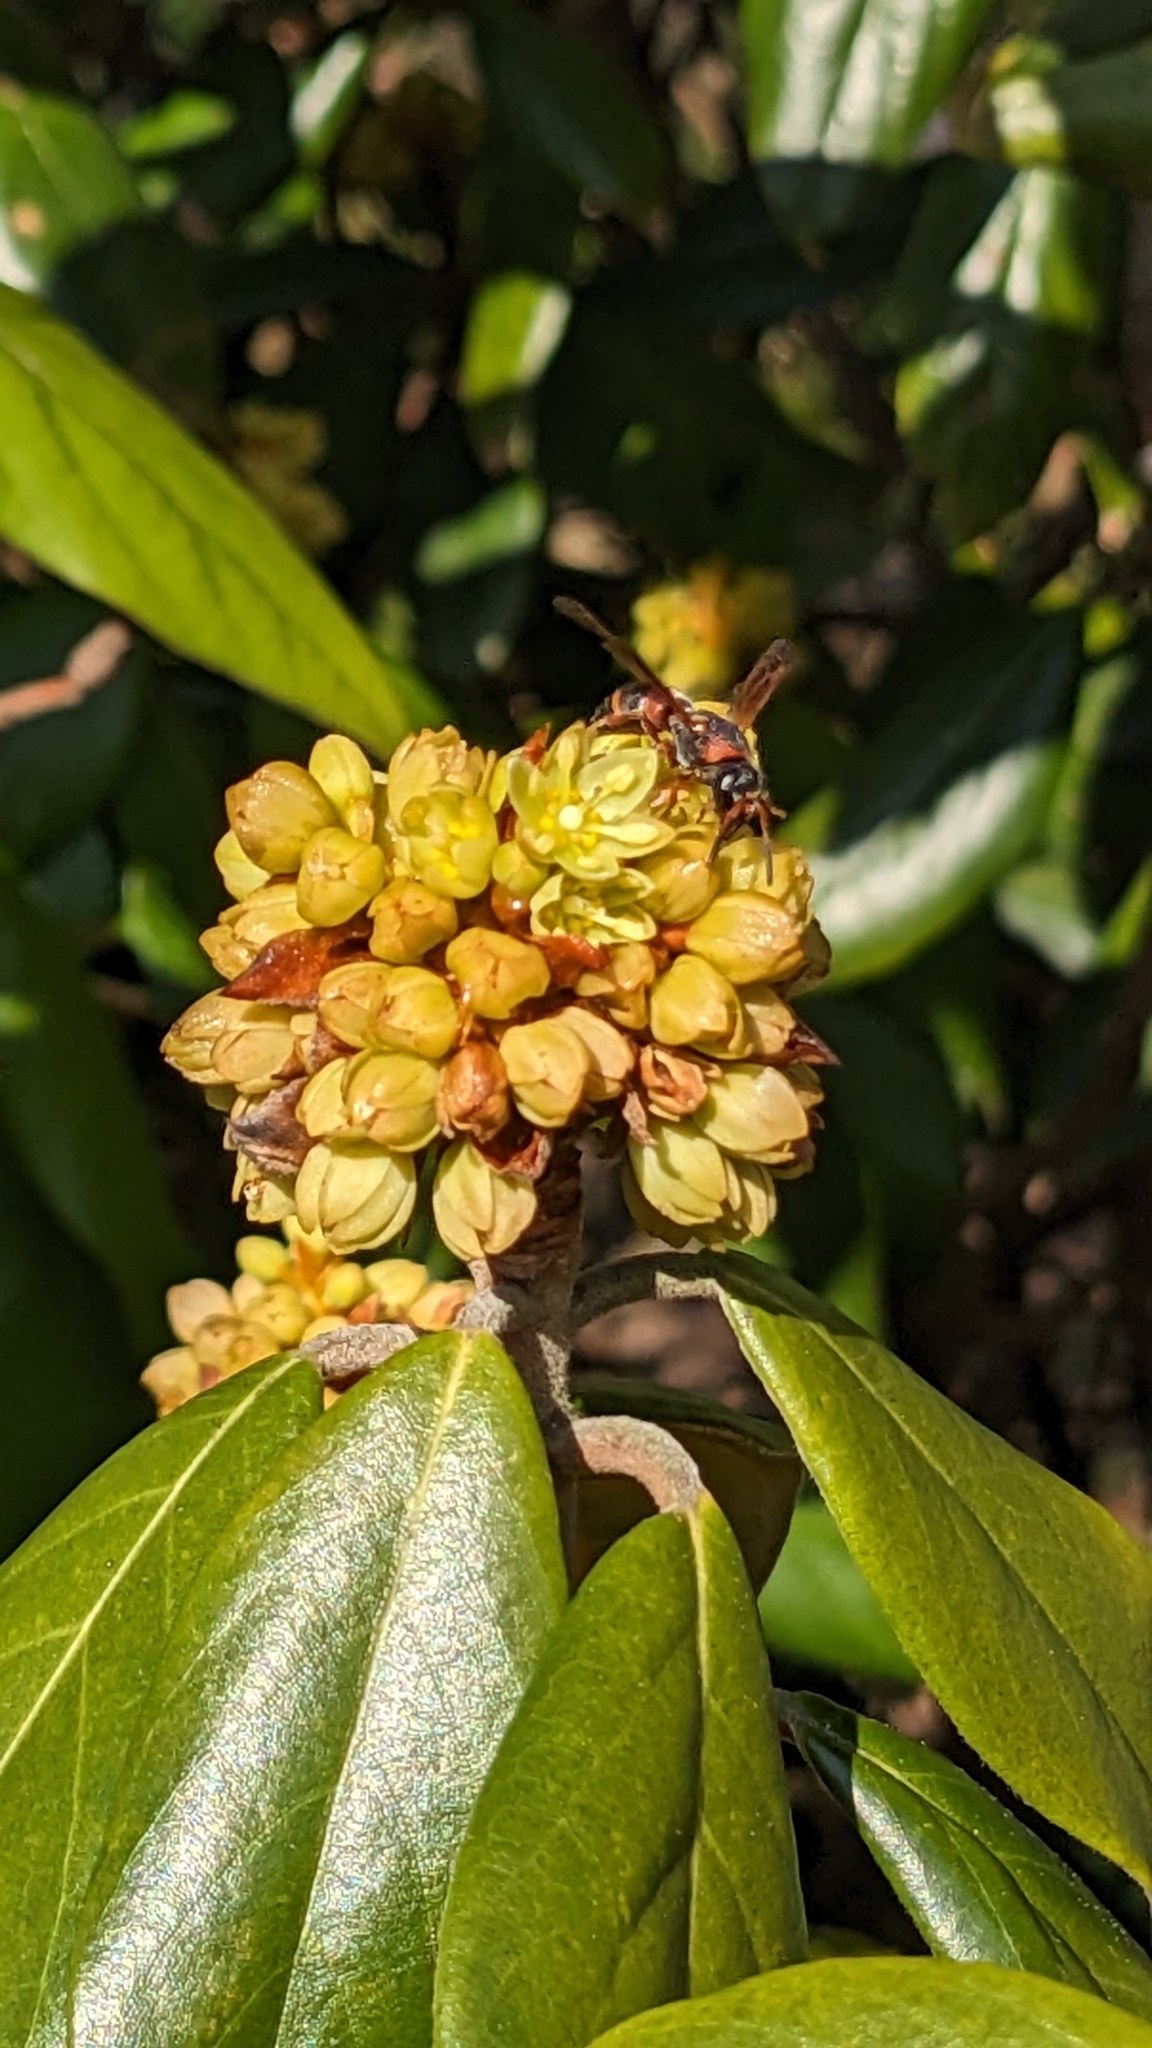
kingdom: Animalia
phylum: Arthropoda
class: Insecta
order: Hymenoptera
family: Eumenidae
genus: Pachodynerus
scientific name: Pachodynerus erynnis
